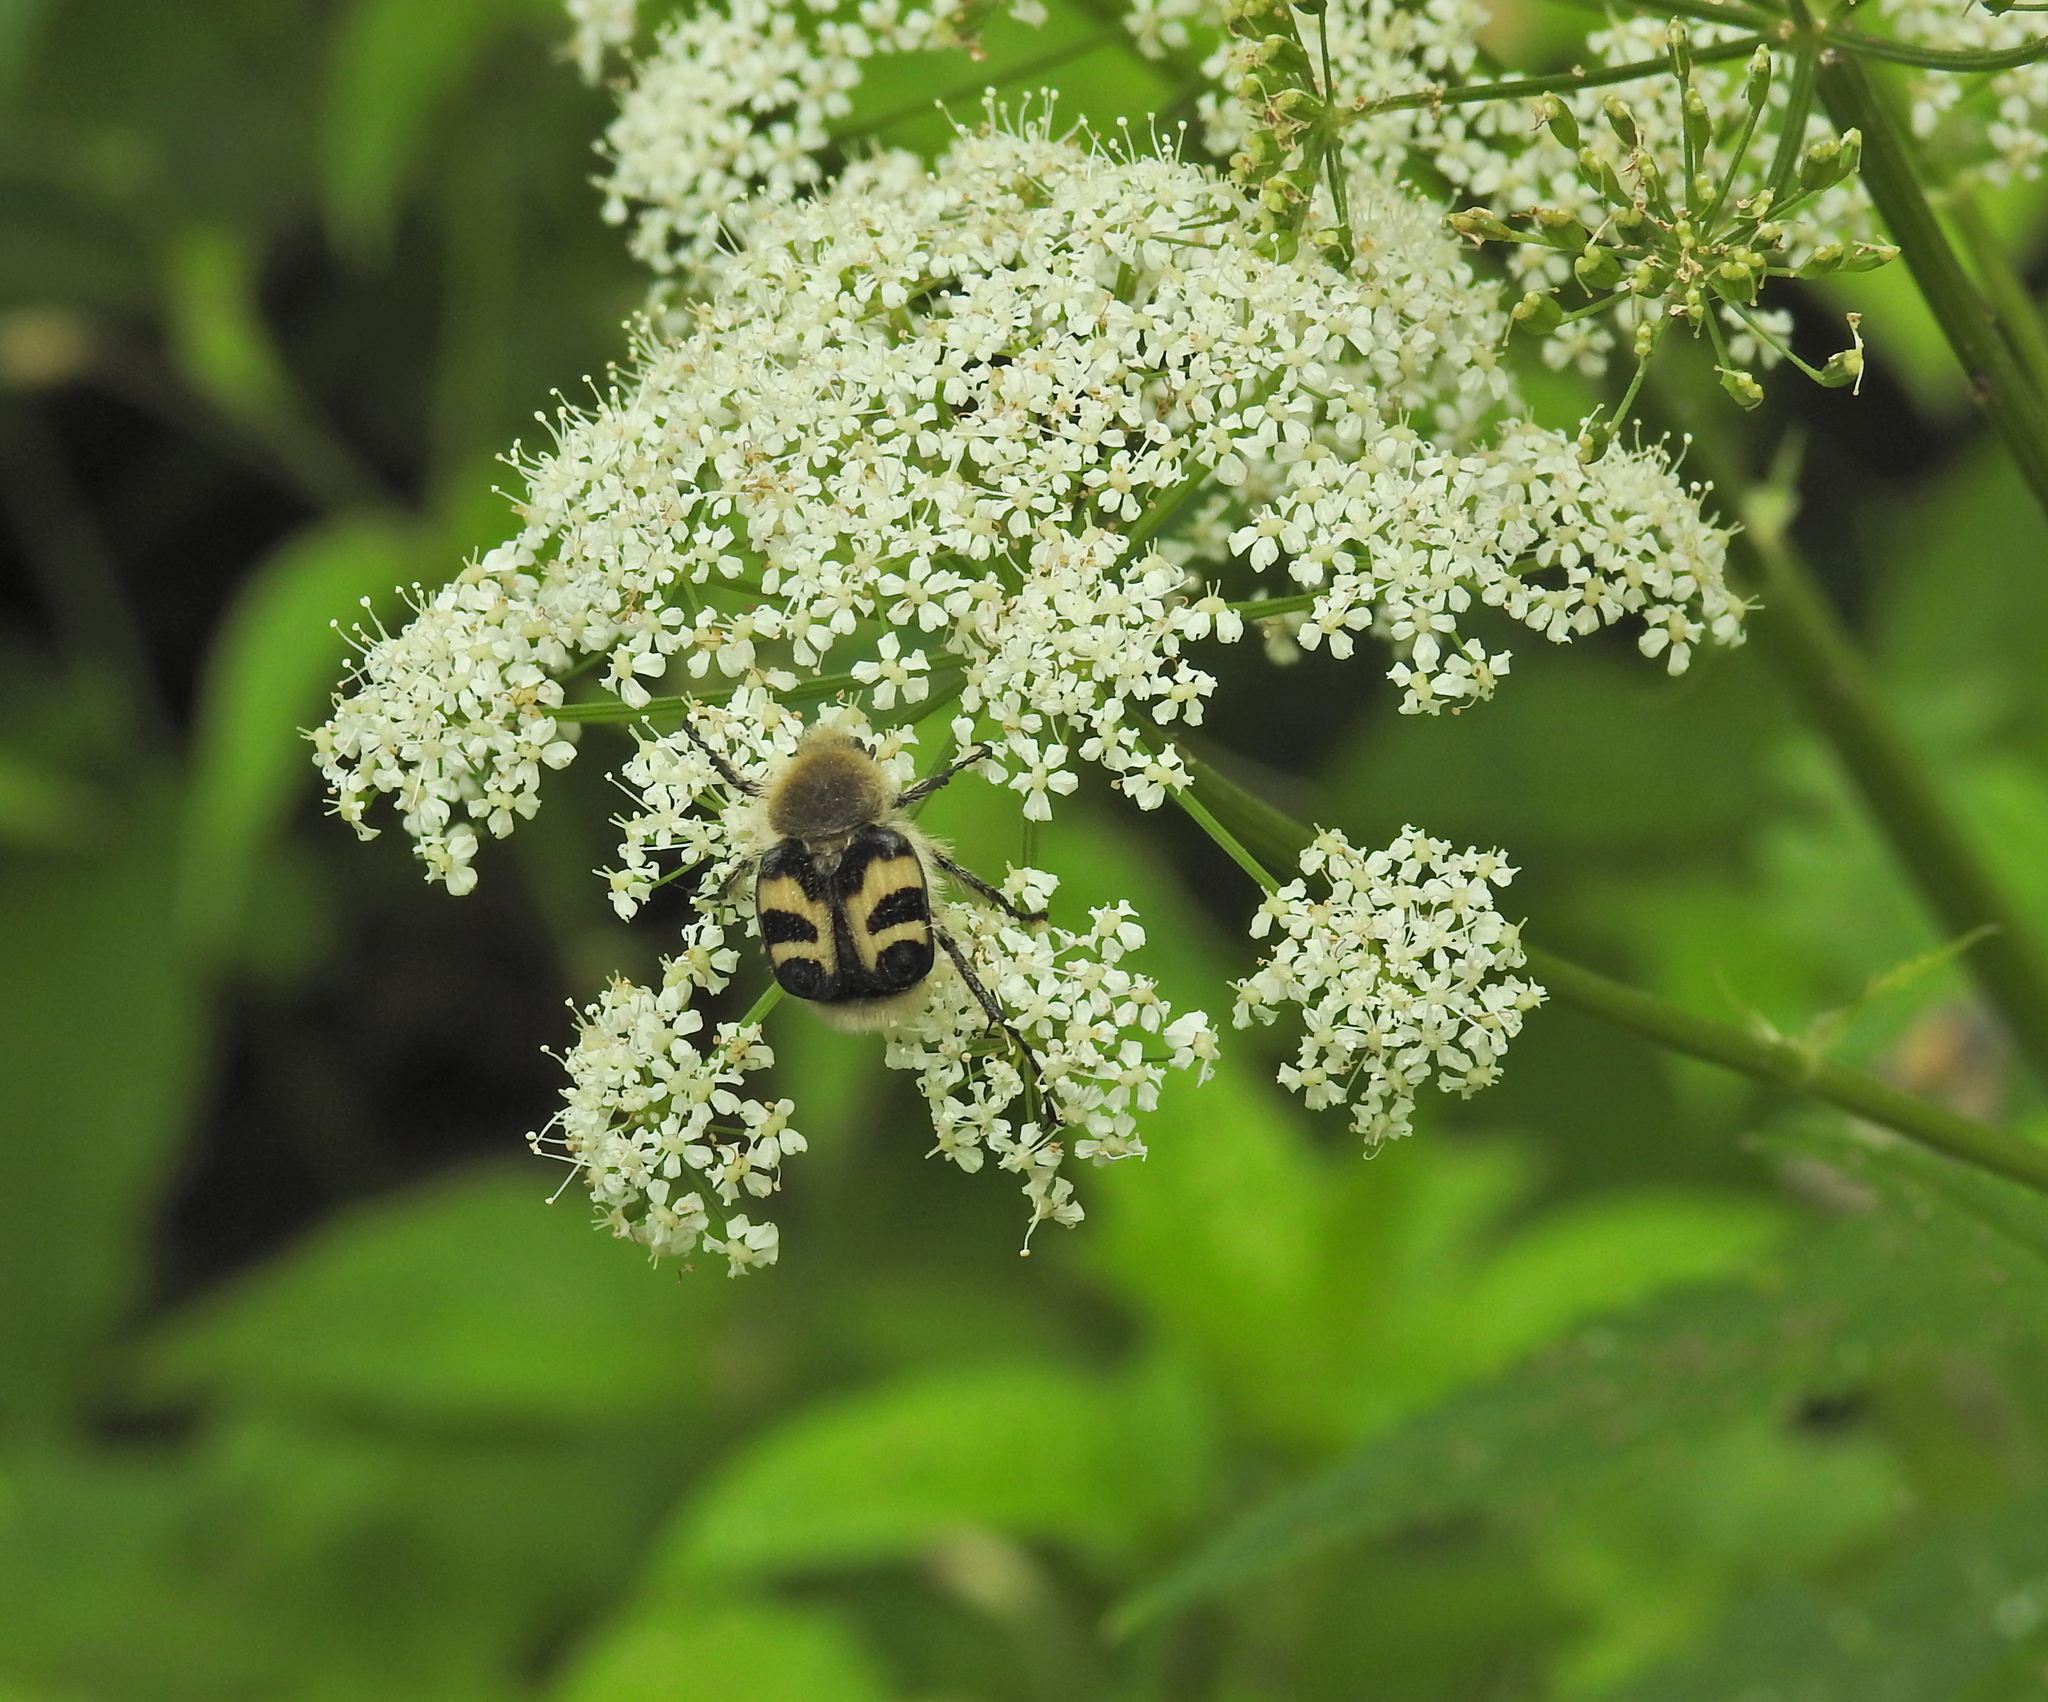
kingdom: Animalia
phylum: Arthropoda
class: Insecta
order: Coleoptera
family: Scarabaeidae
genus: Trichius
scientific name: Trichius fasciatus
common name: Bee beetle
